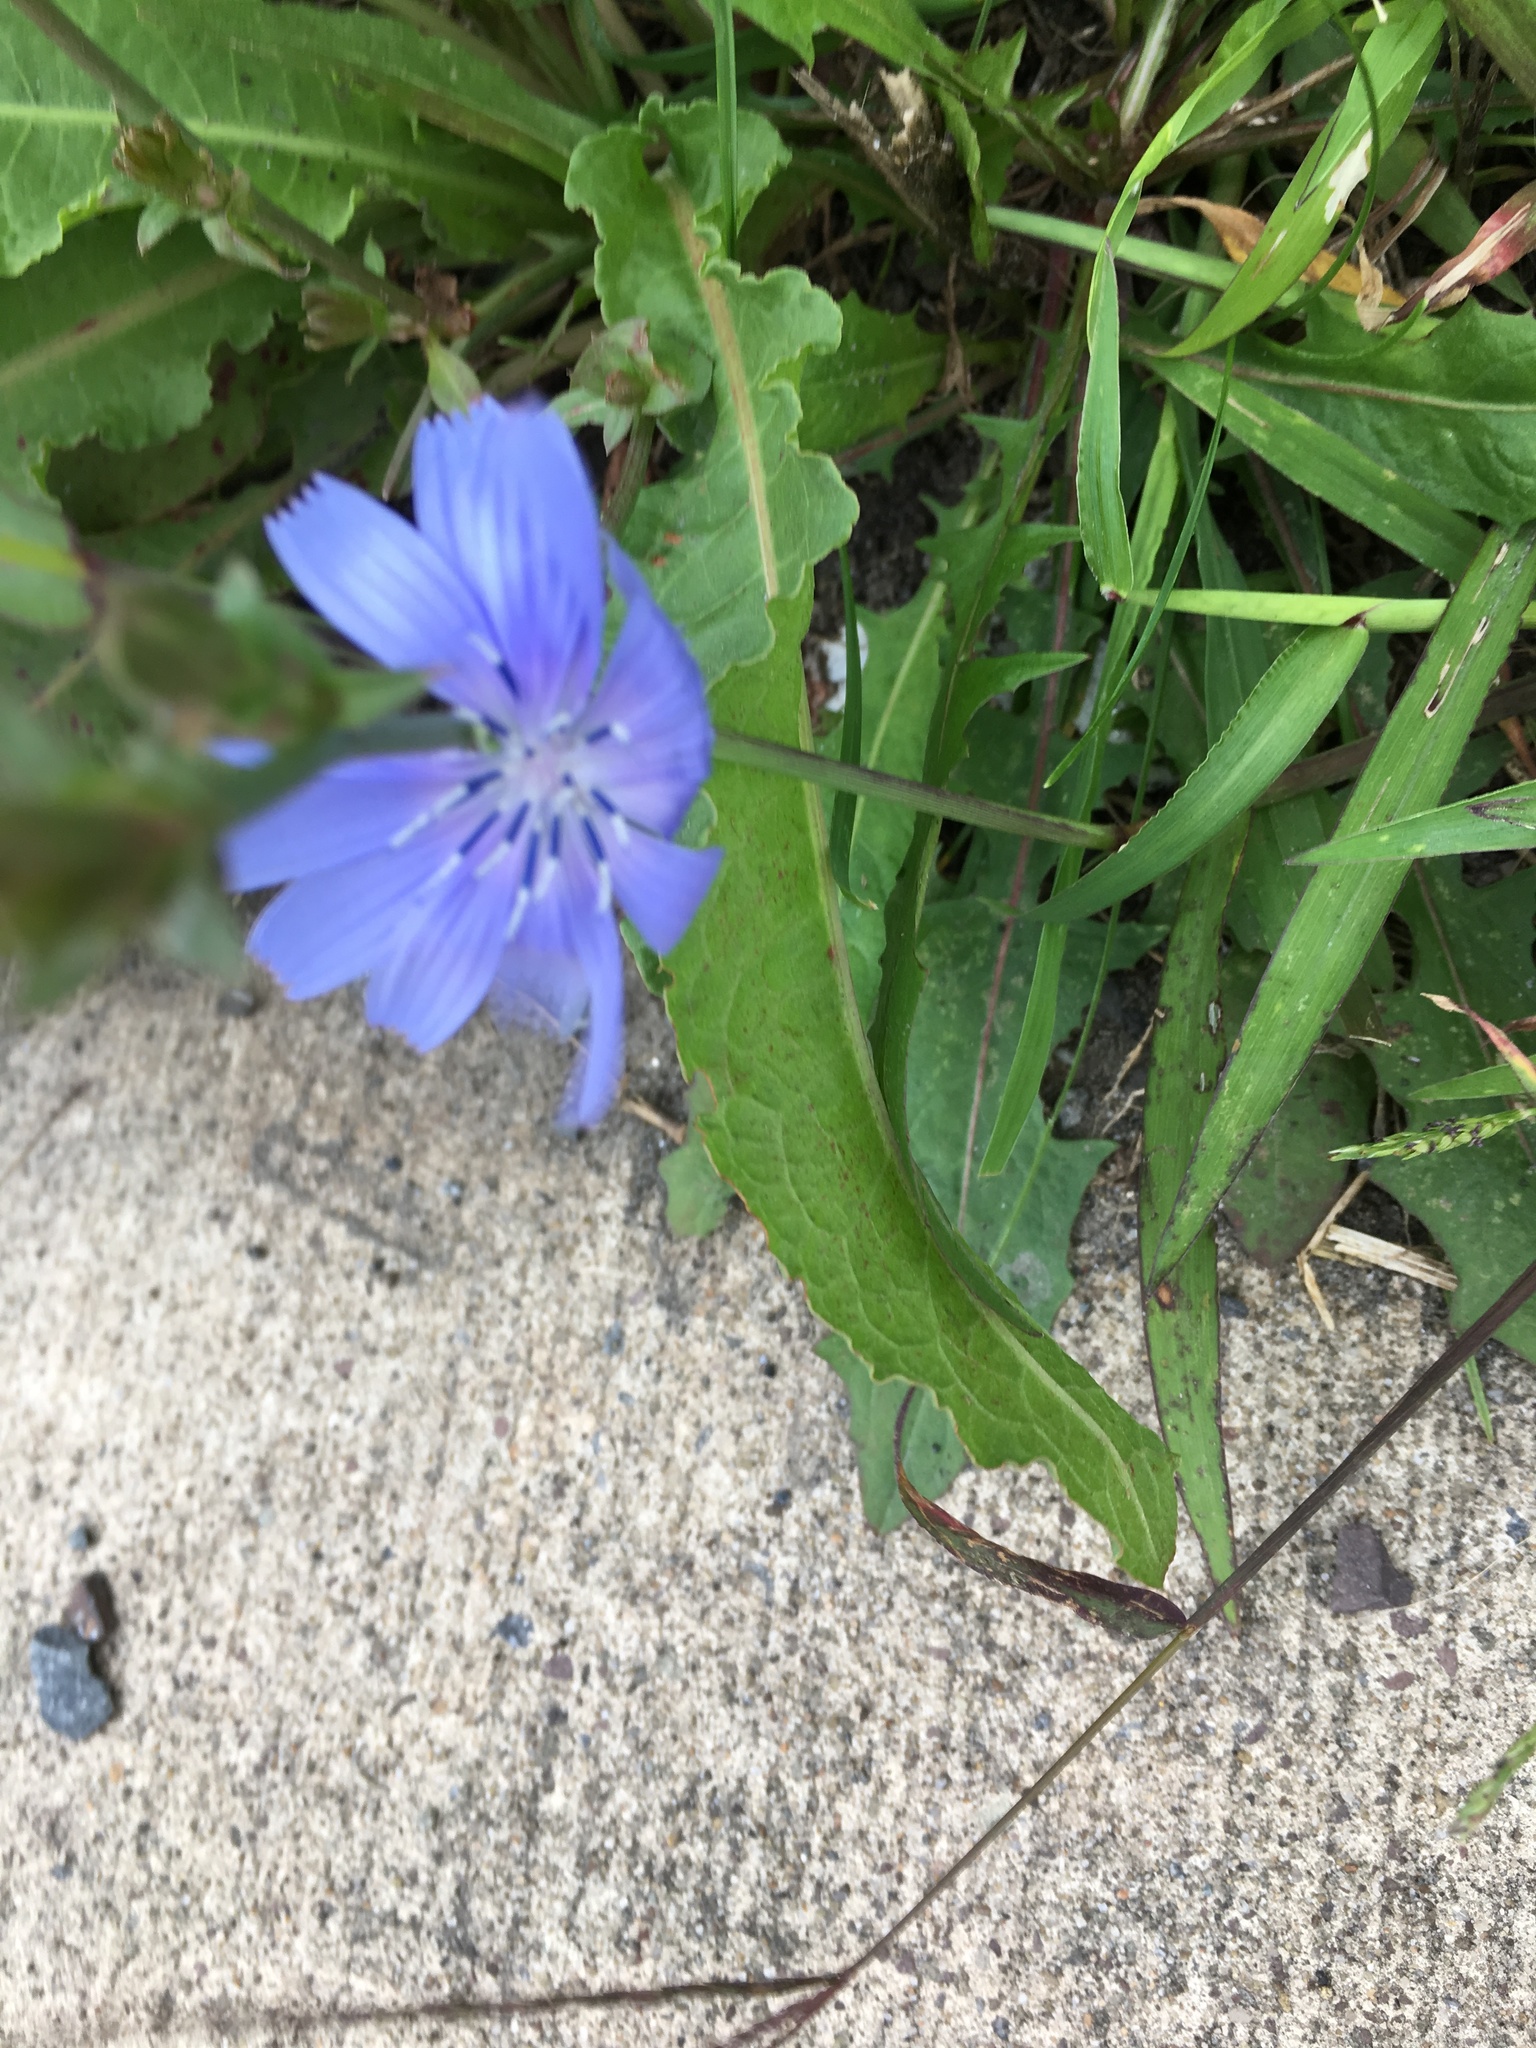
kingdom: Plantae
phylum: Tracheophyta
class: Magnoliopsida
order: Asterales
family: Asteraceae
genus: Cichorium
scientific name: Cichorium intybus
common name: Chicory
